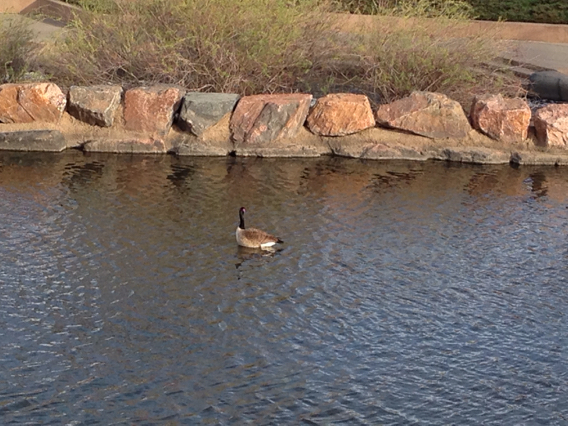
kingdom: Animalia
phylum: Chordata
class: Aves
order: Anseriformes
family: Anatidae
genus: Branta
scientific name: Branta canadensis
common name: Canada goose
